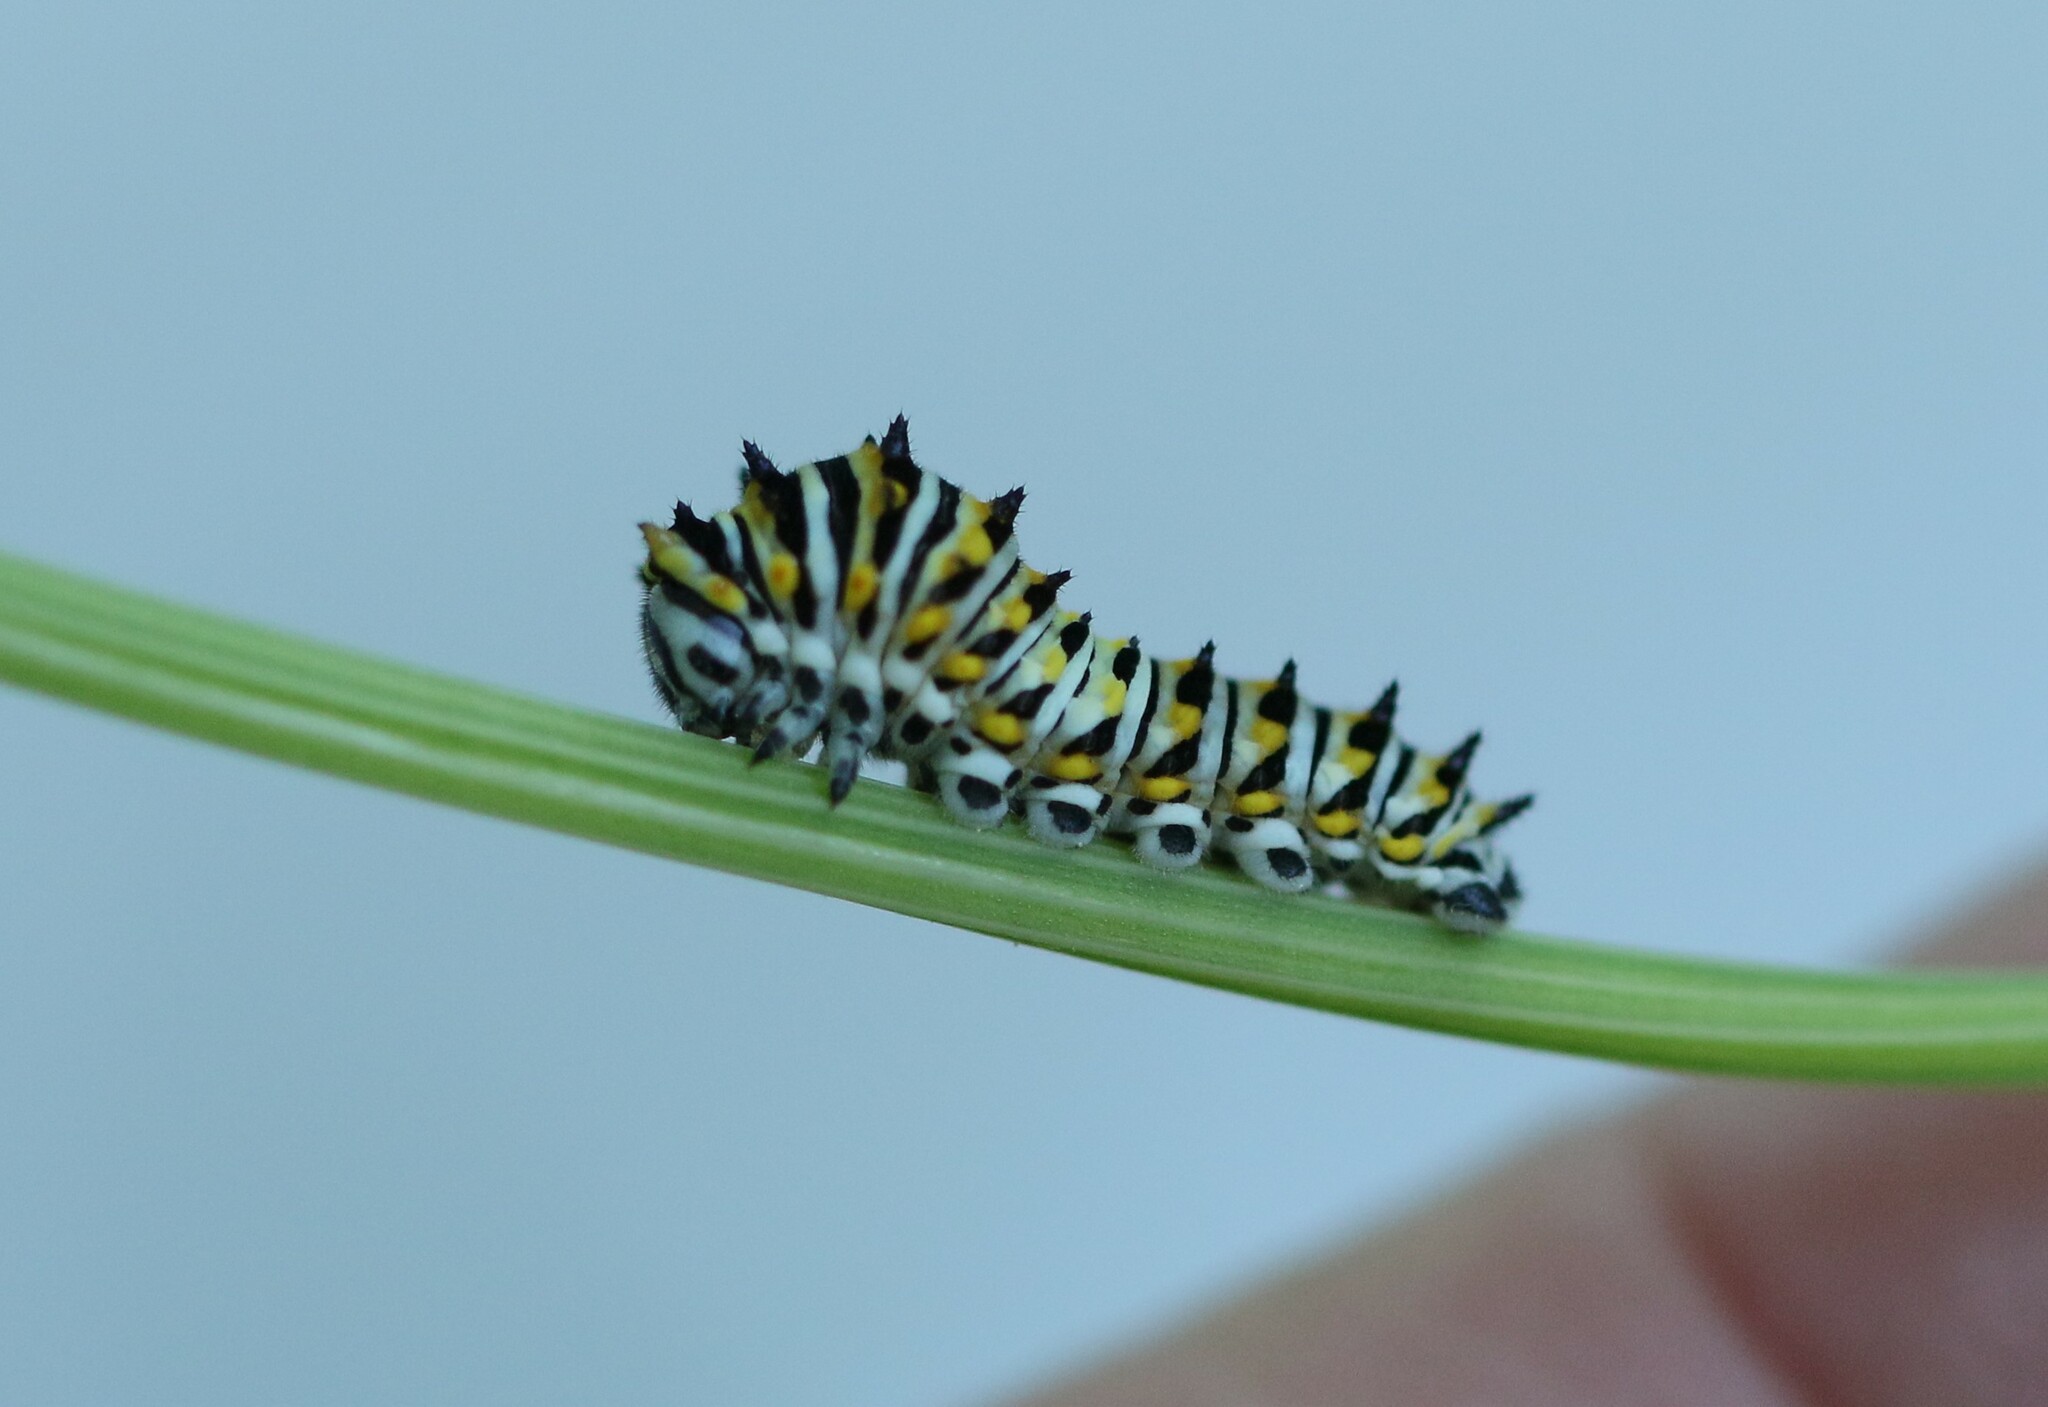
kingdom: Animalia
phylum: Arthropoda
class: Insecta
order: Lepidoptera
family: Papilionidae
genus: Papilio
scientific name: Papilio polyxenes
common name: Black swallowtail
